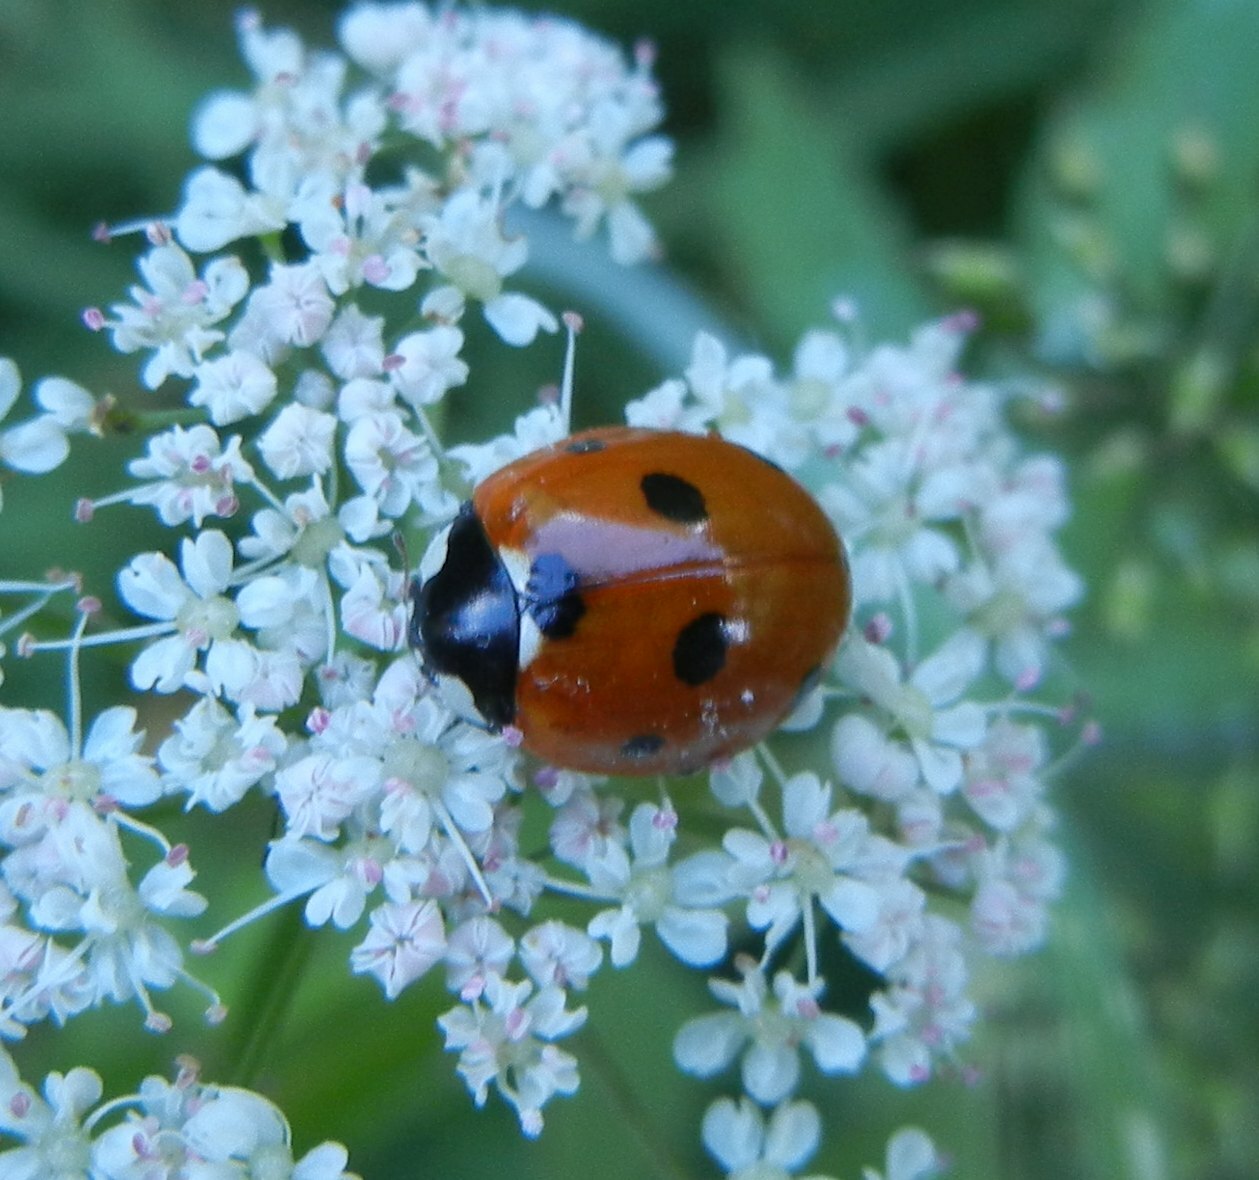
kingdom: Animalia
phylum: Arthropoda
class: Insecta
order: Coleoptera
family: Coccinellidae
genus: Coccinella
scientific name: Coccinella septempunctata
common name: Sevenspotted lady beetle
